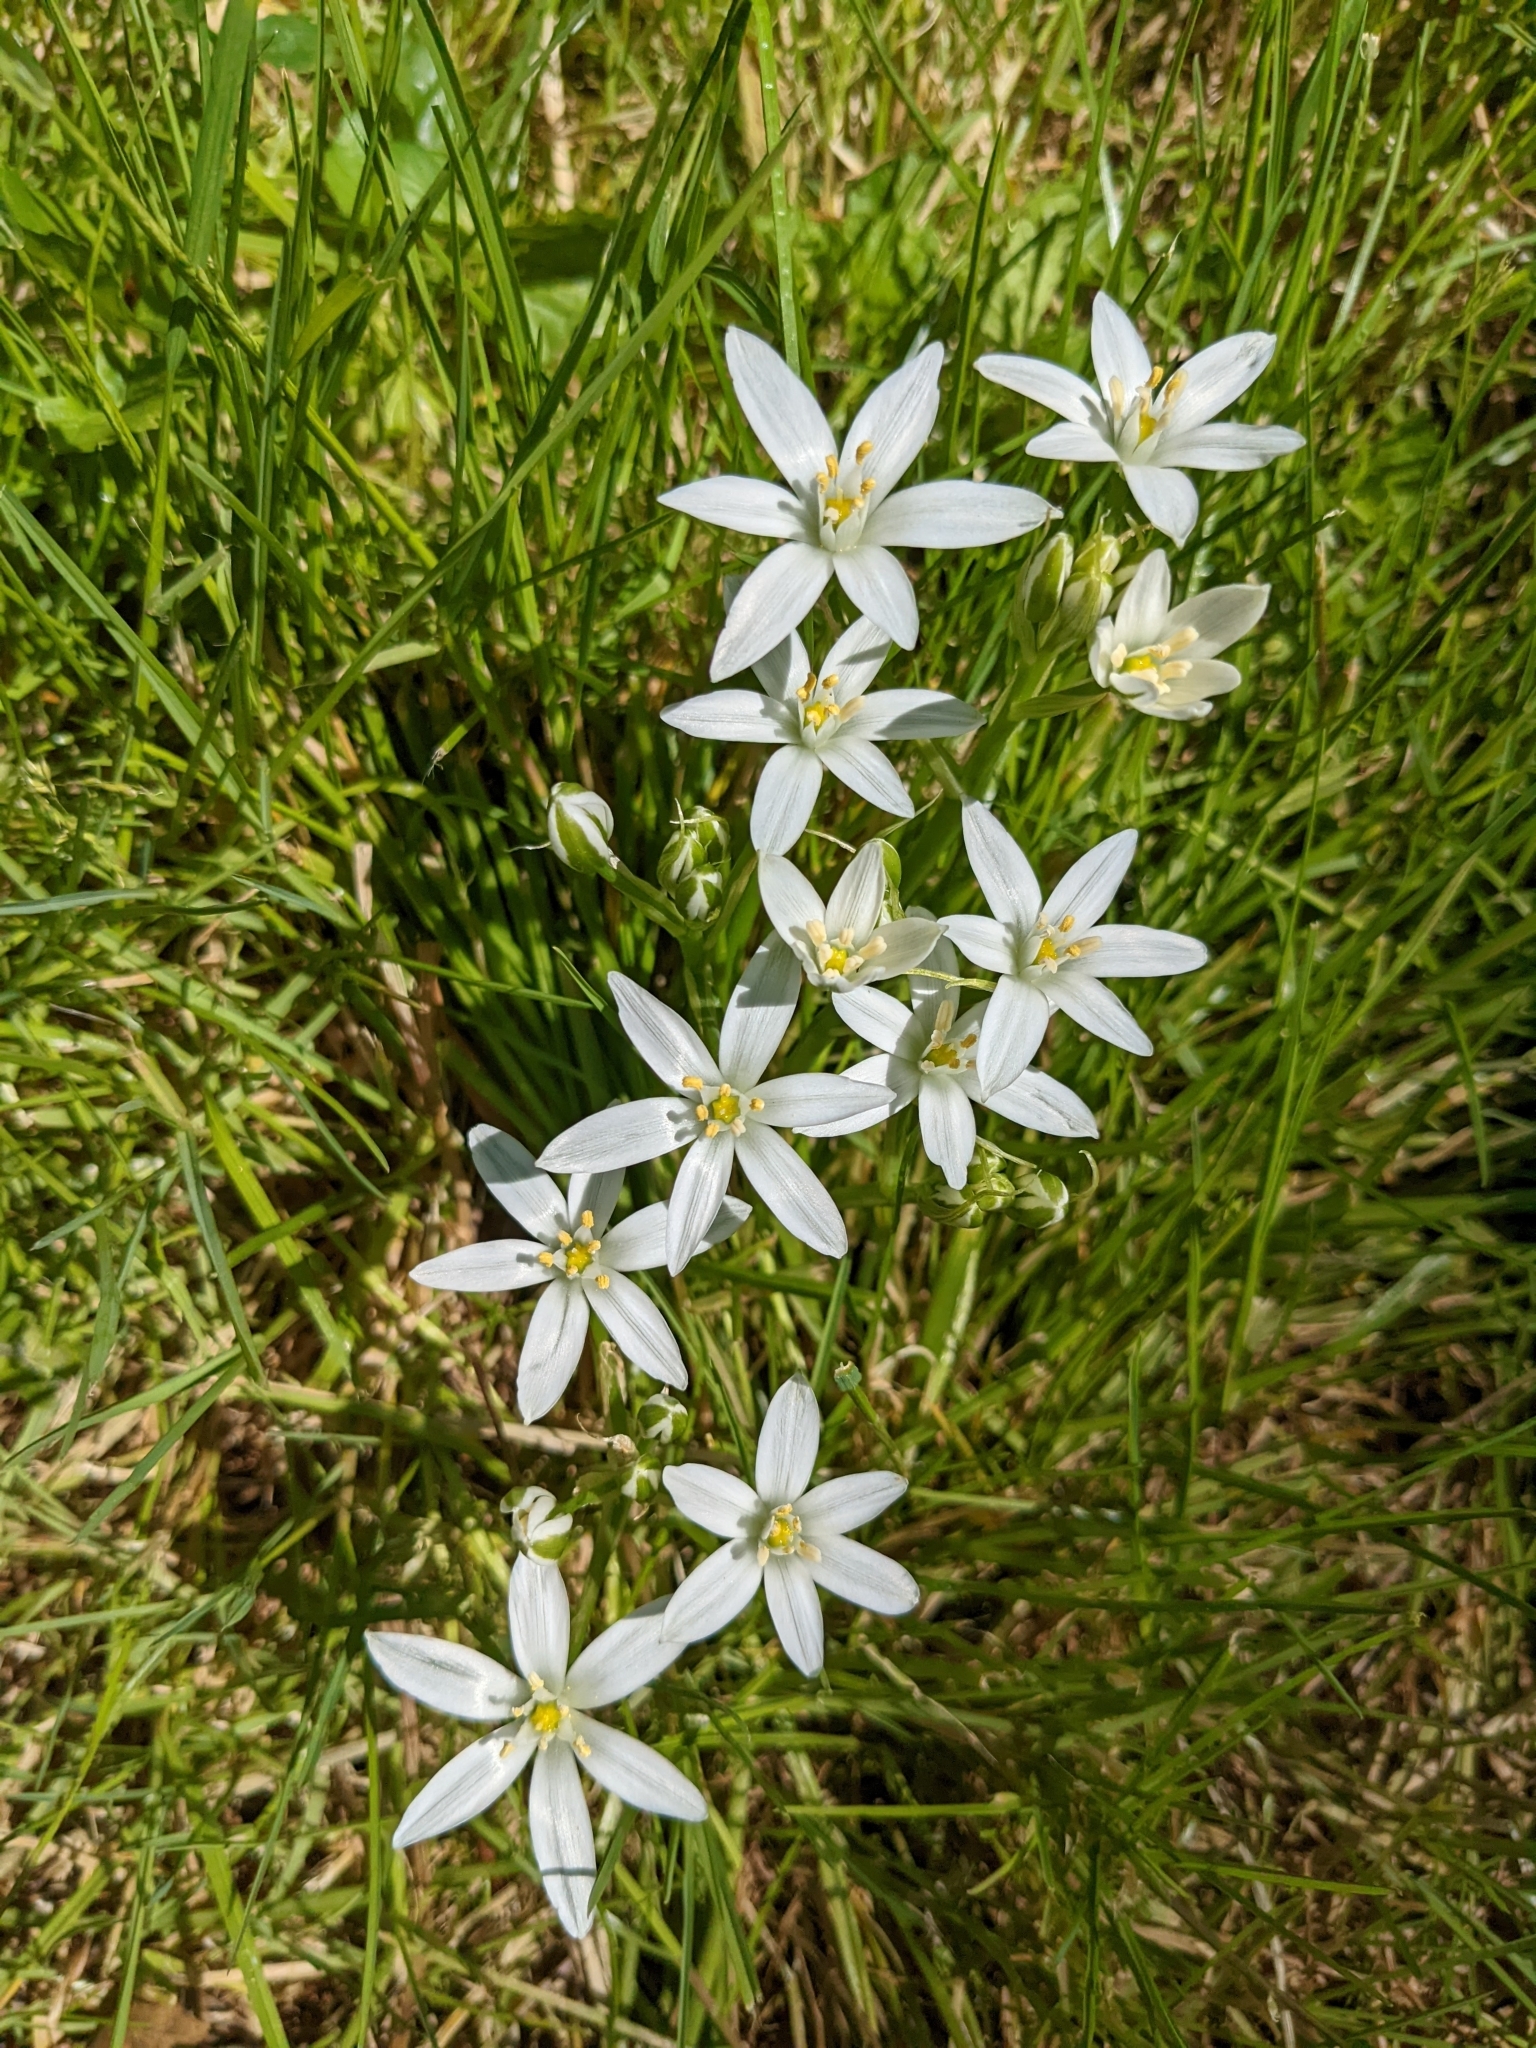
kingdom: Plantae
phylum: Tracheophyta
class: Liliopsida
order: Asparagales
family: Asparagaceae
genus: Ornithogalum
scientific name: Ornithogalum umbellatum
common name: Garden star-of-bethlehem
